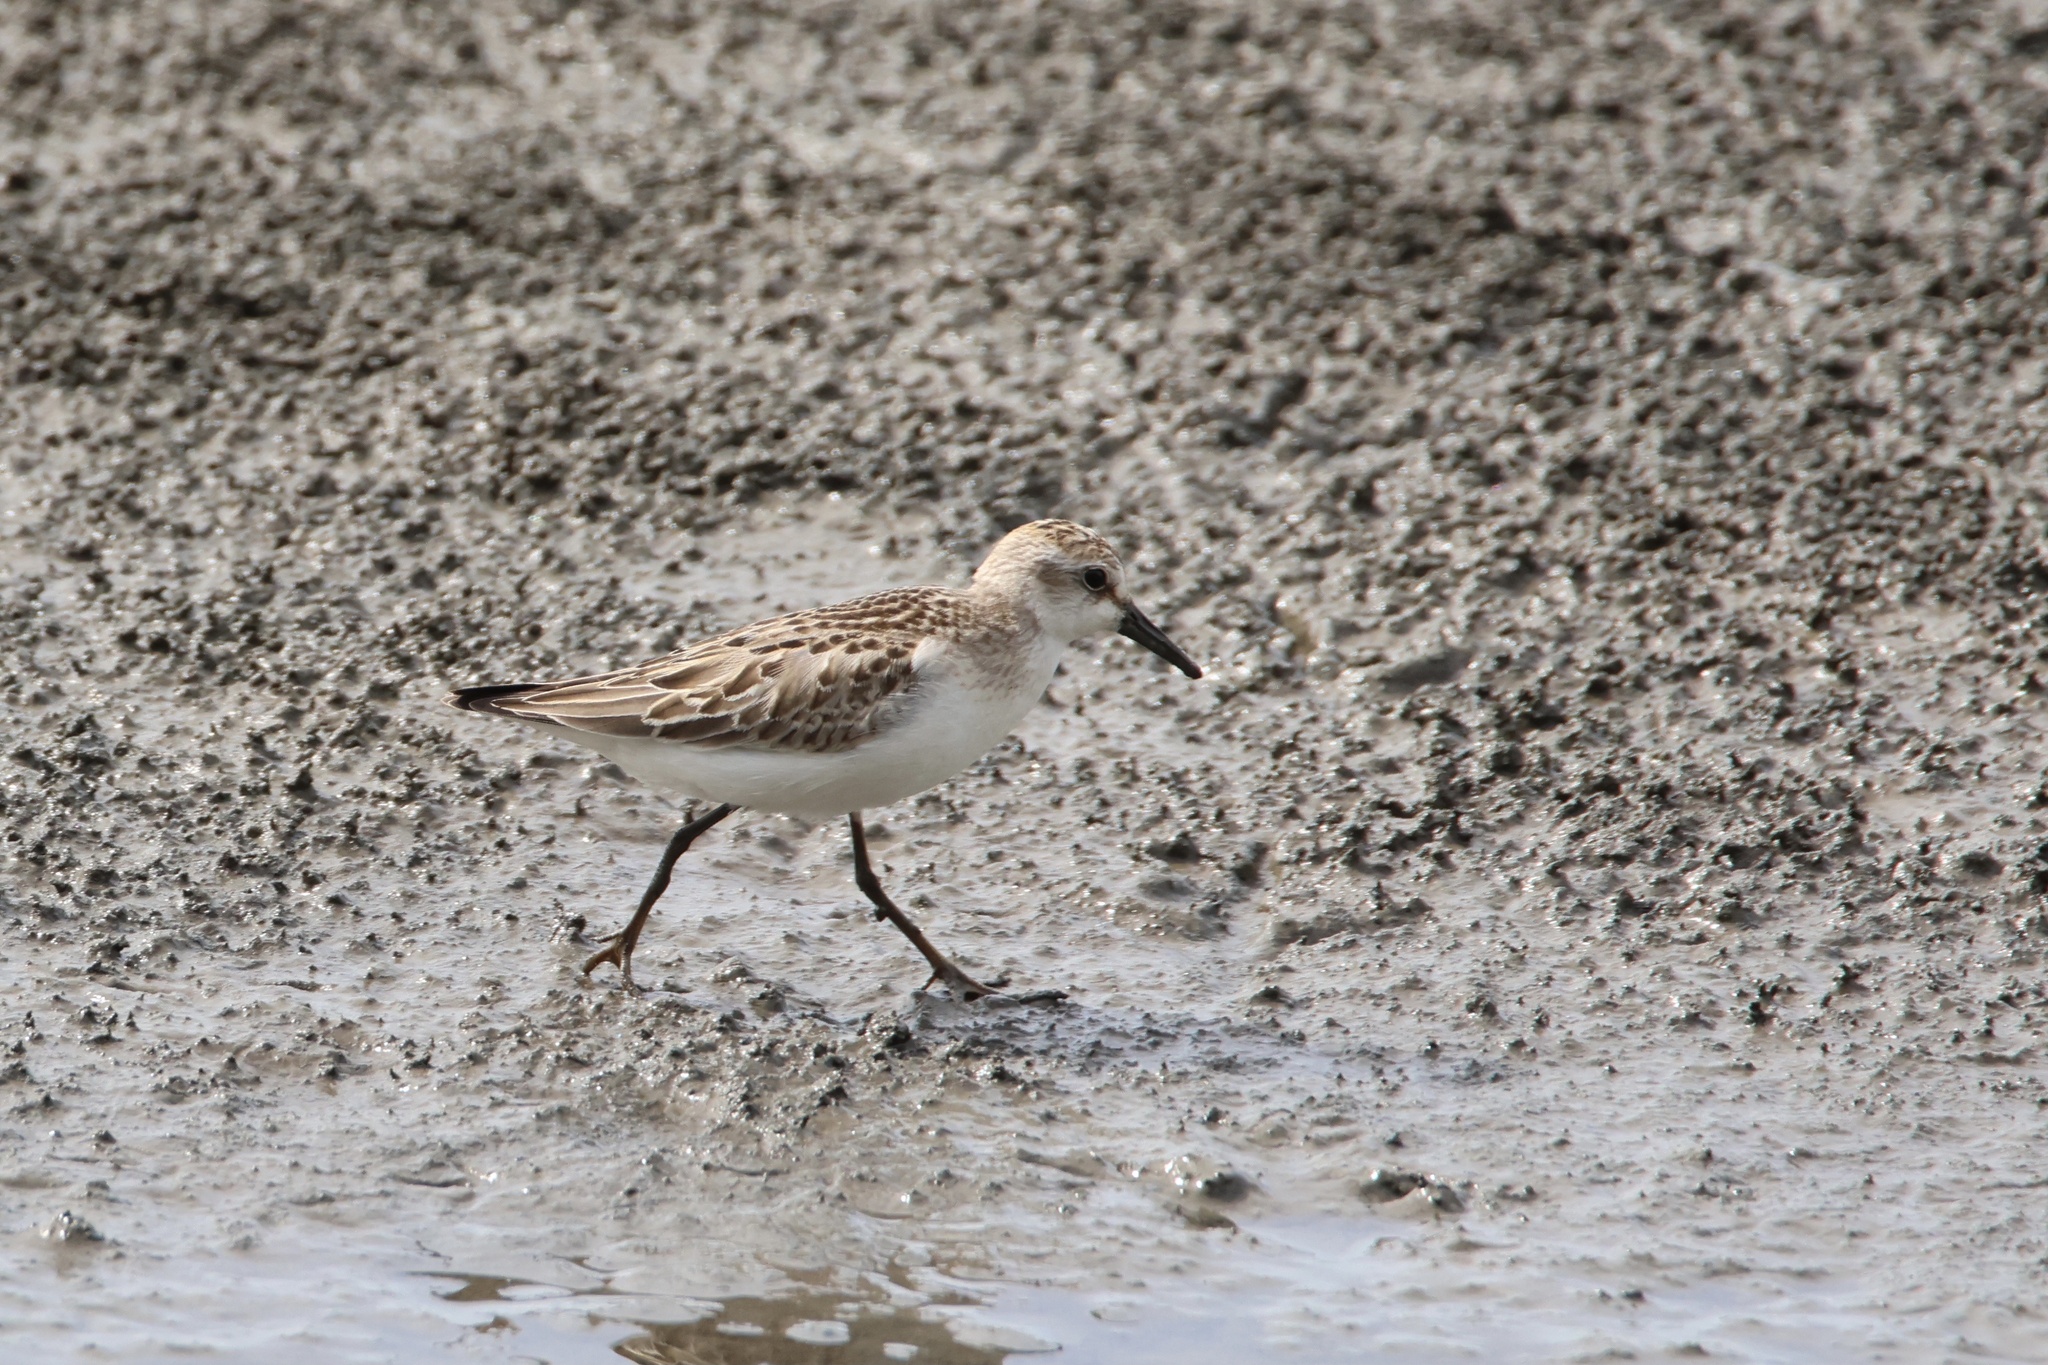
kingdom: Animalia
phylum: Chordata
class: Aves
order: Charadriiformes
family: Scolopacidae
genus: Calidris
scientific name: Calidris pusilla
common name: Semipalmated sandpiper
